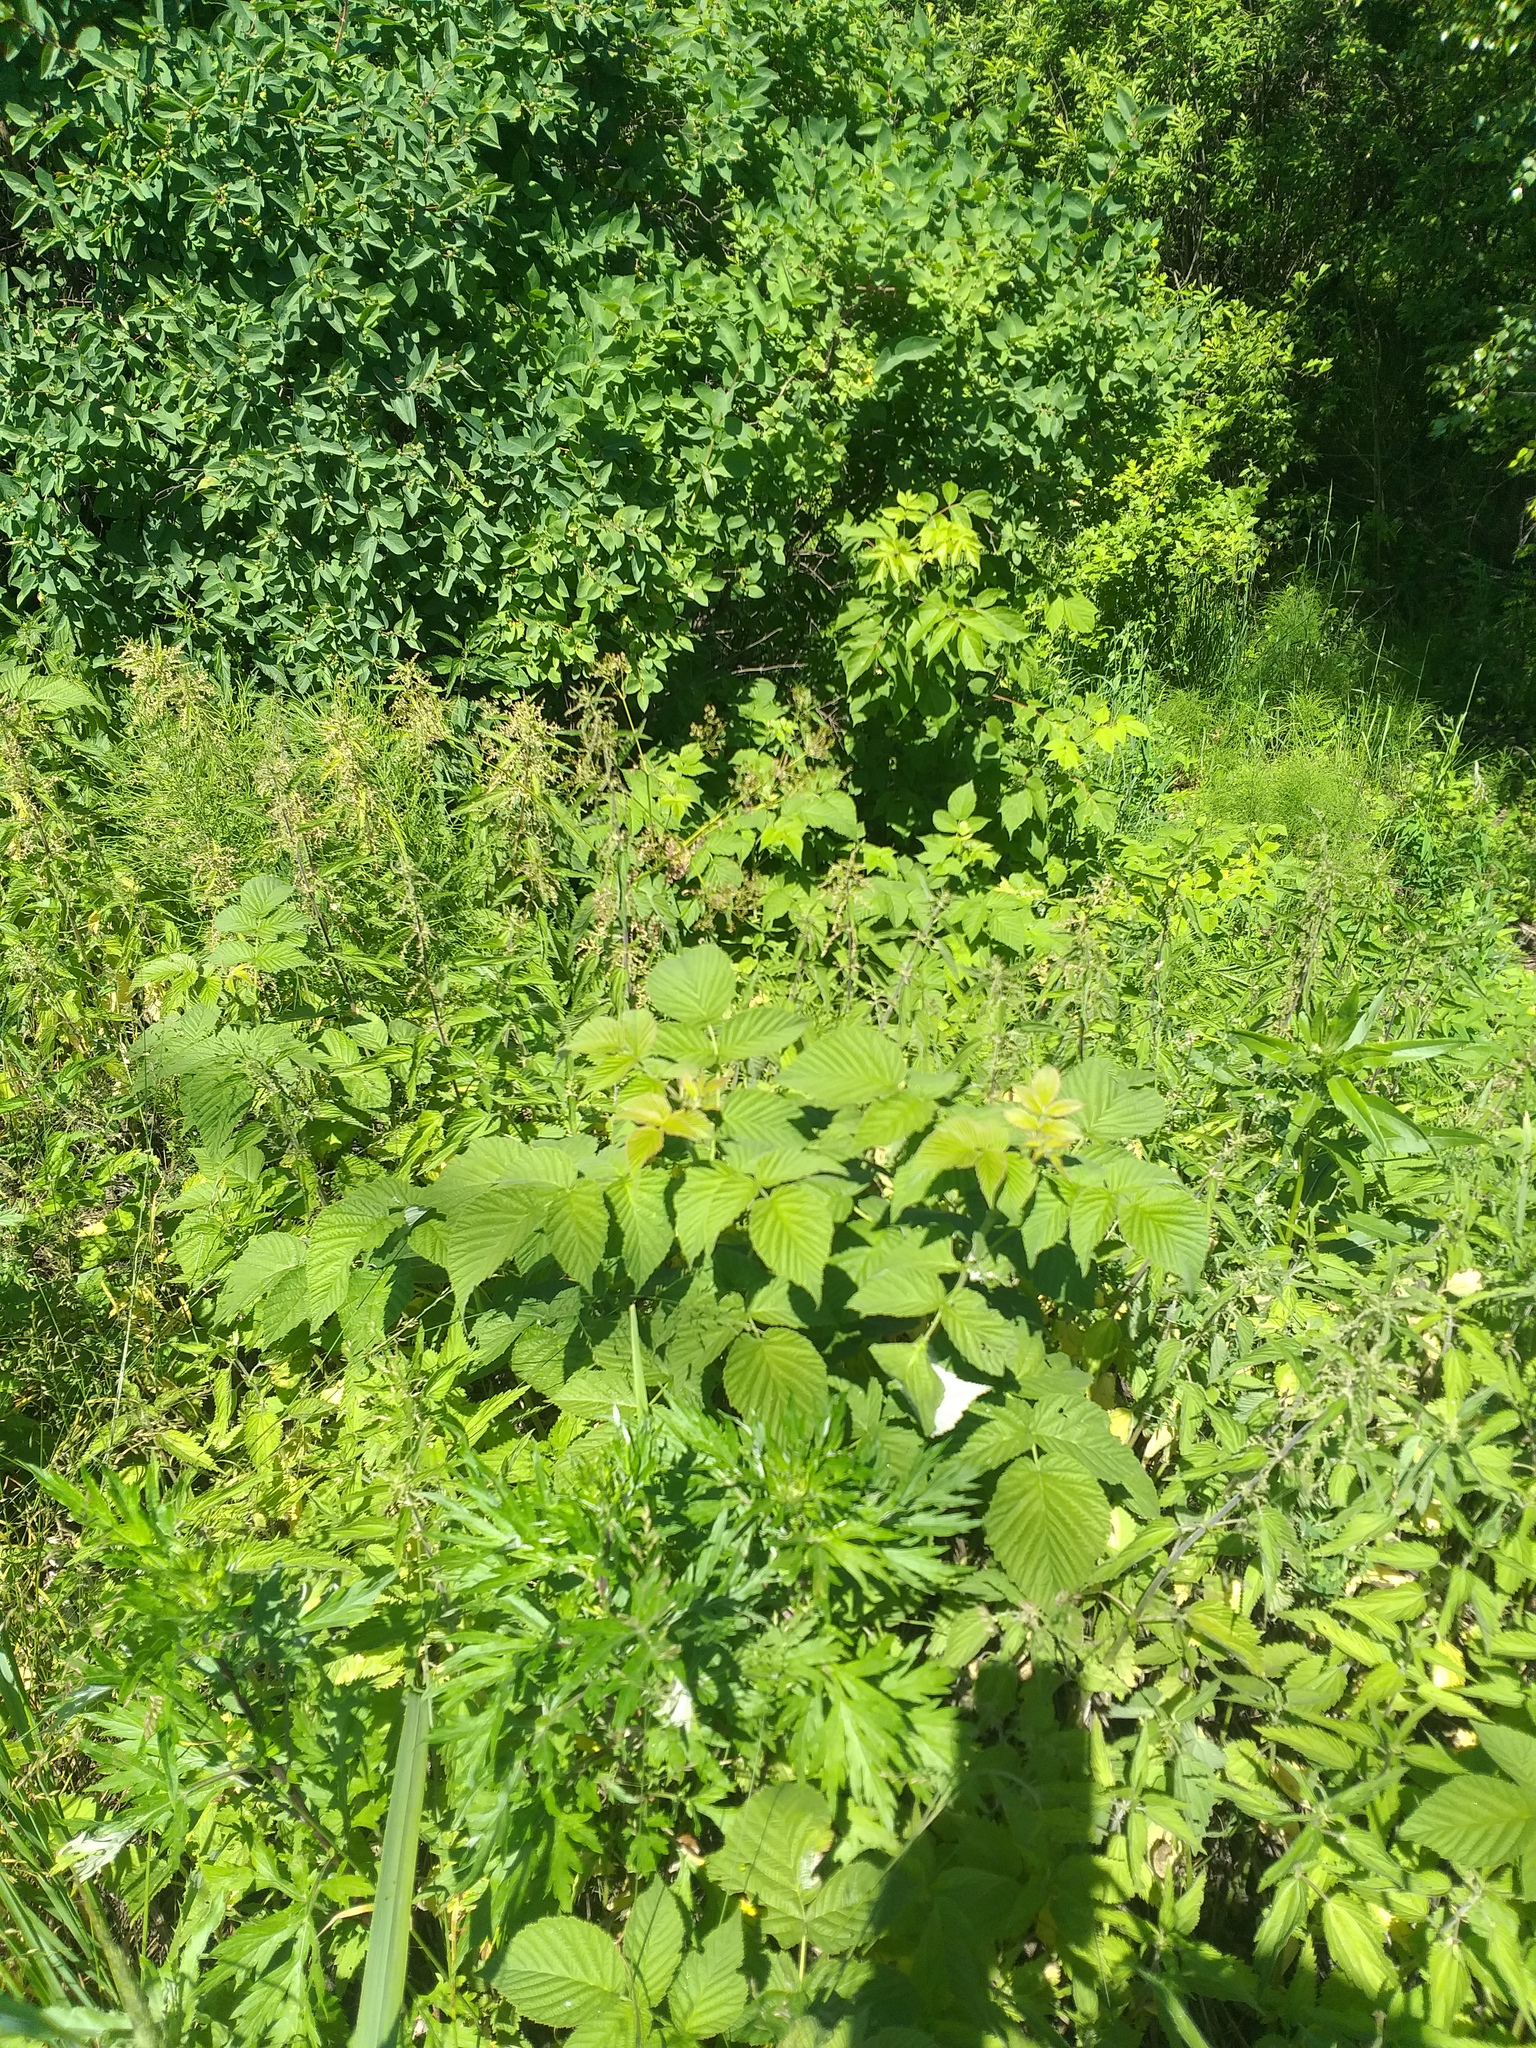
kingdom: Plantae
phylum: Tracheophyta
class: Magnoliopsida
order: Rosales
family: Rosaceae
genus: Rubus
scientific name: Rubus idaeus
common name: Raspberry
